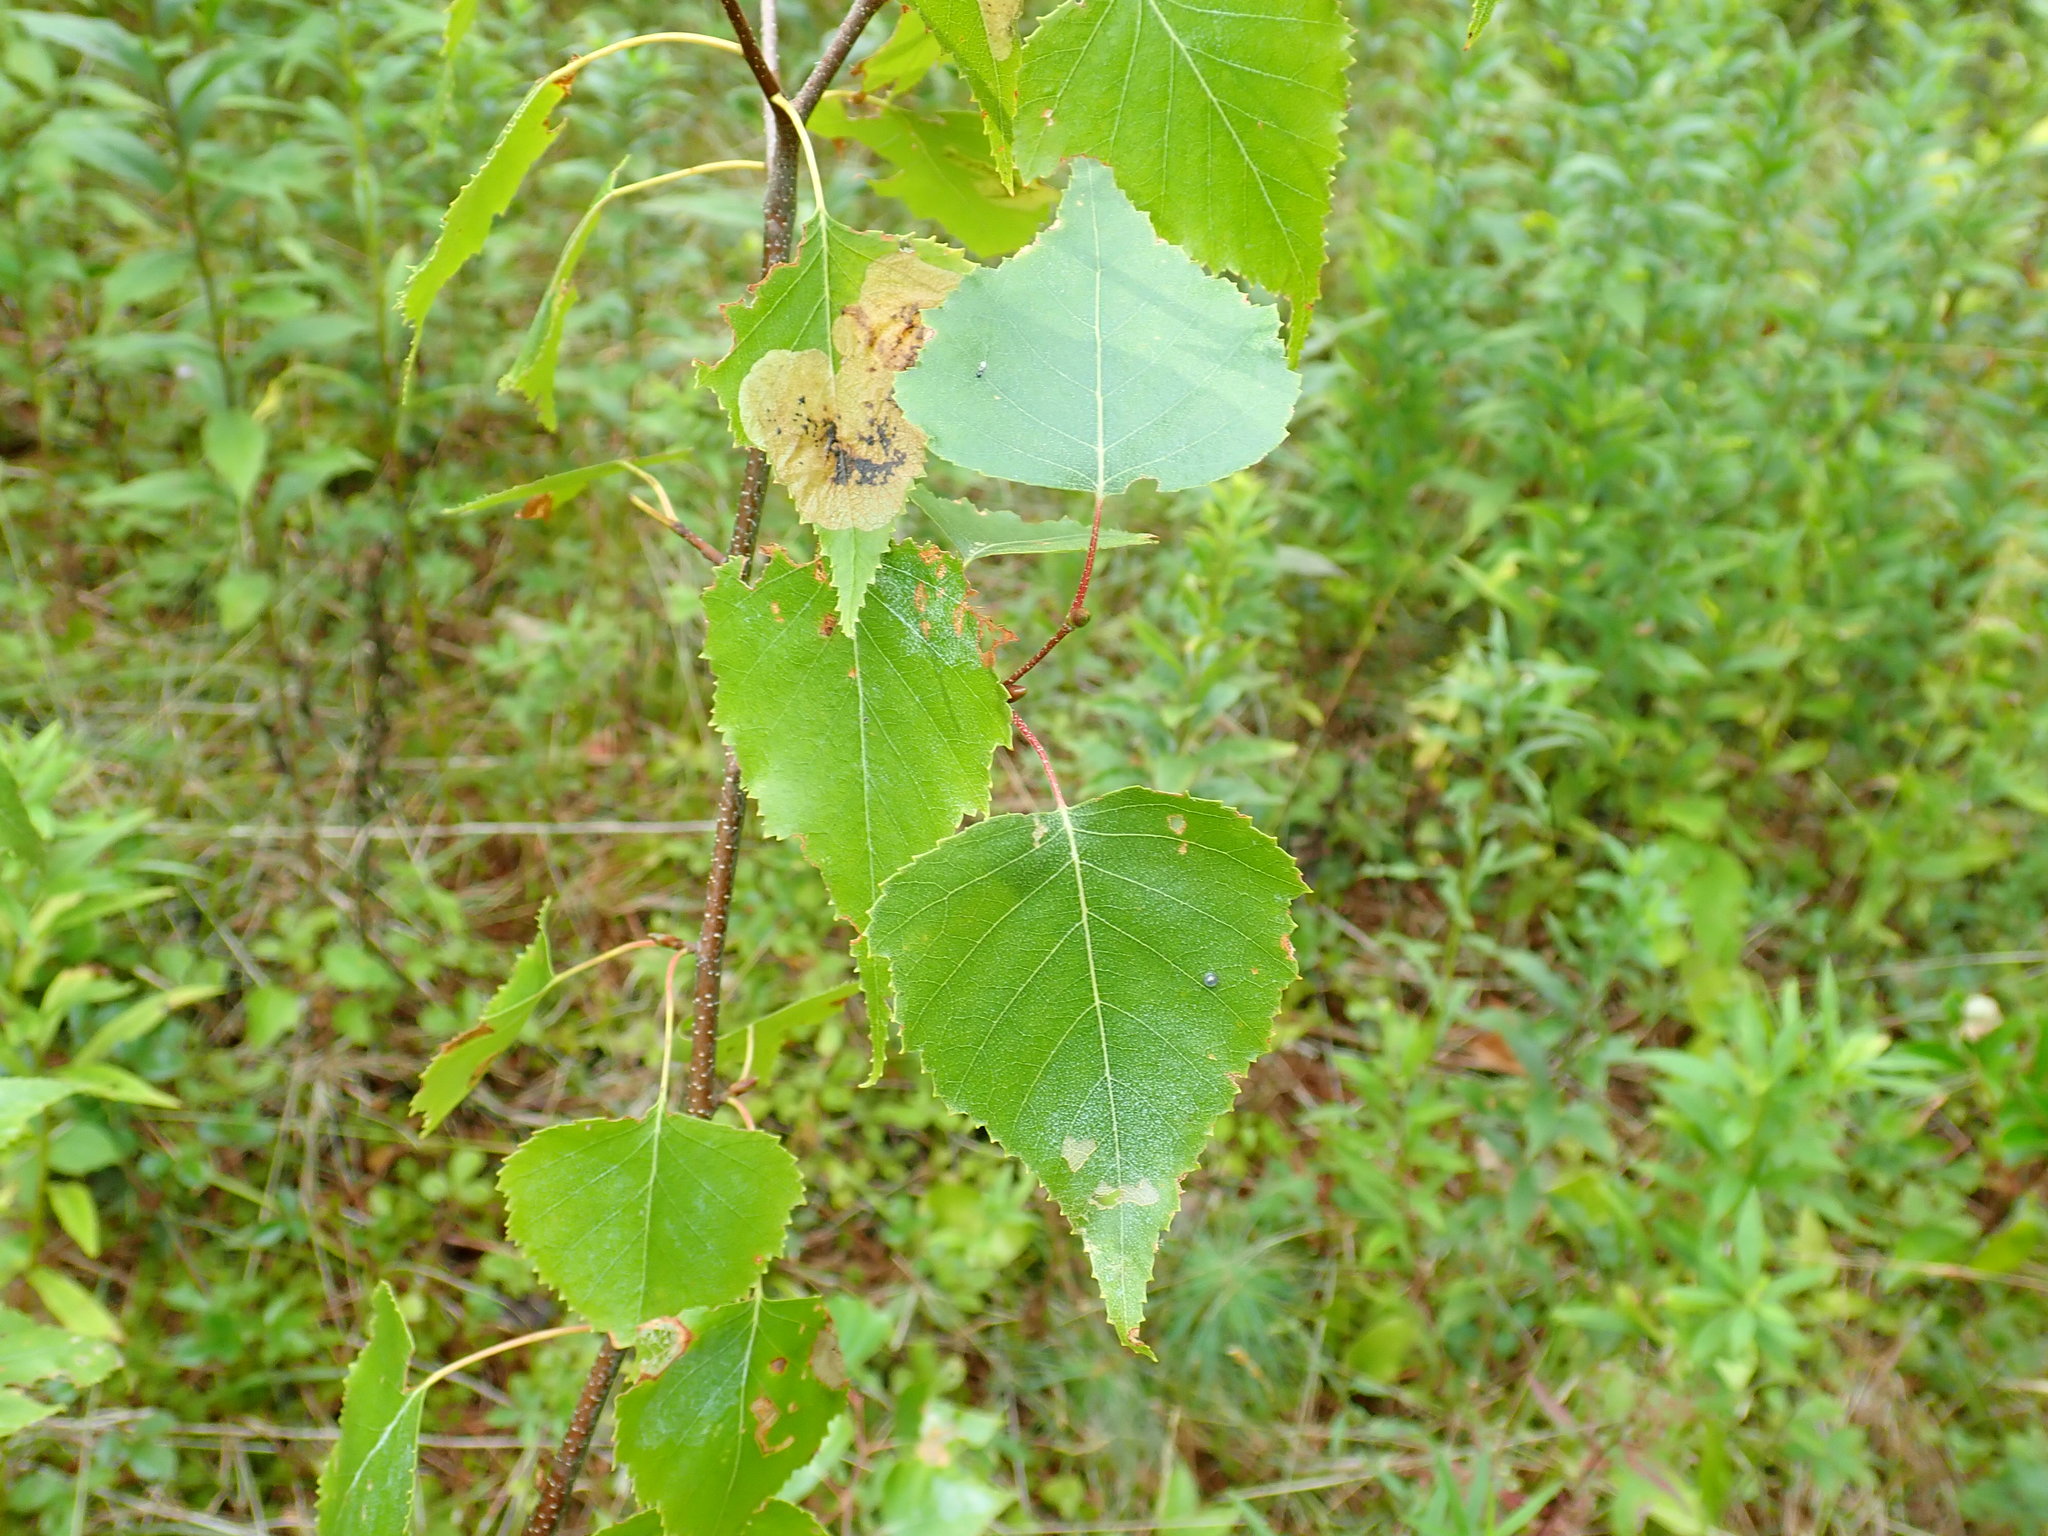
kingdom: Plantae
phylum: Tracheophyta
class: Magnoliopsida
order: Fagales
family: Betulaceae
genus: Betula
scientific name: Betula populifolia
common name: Fire birch
